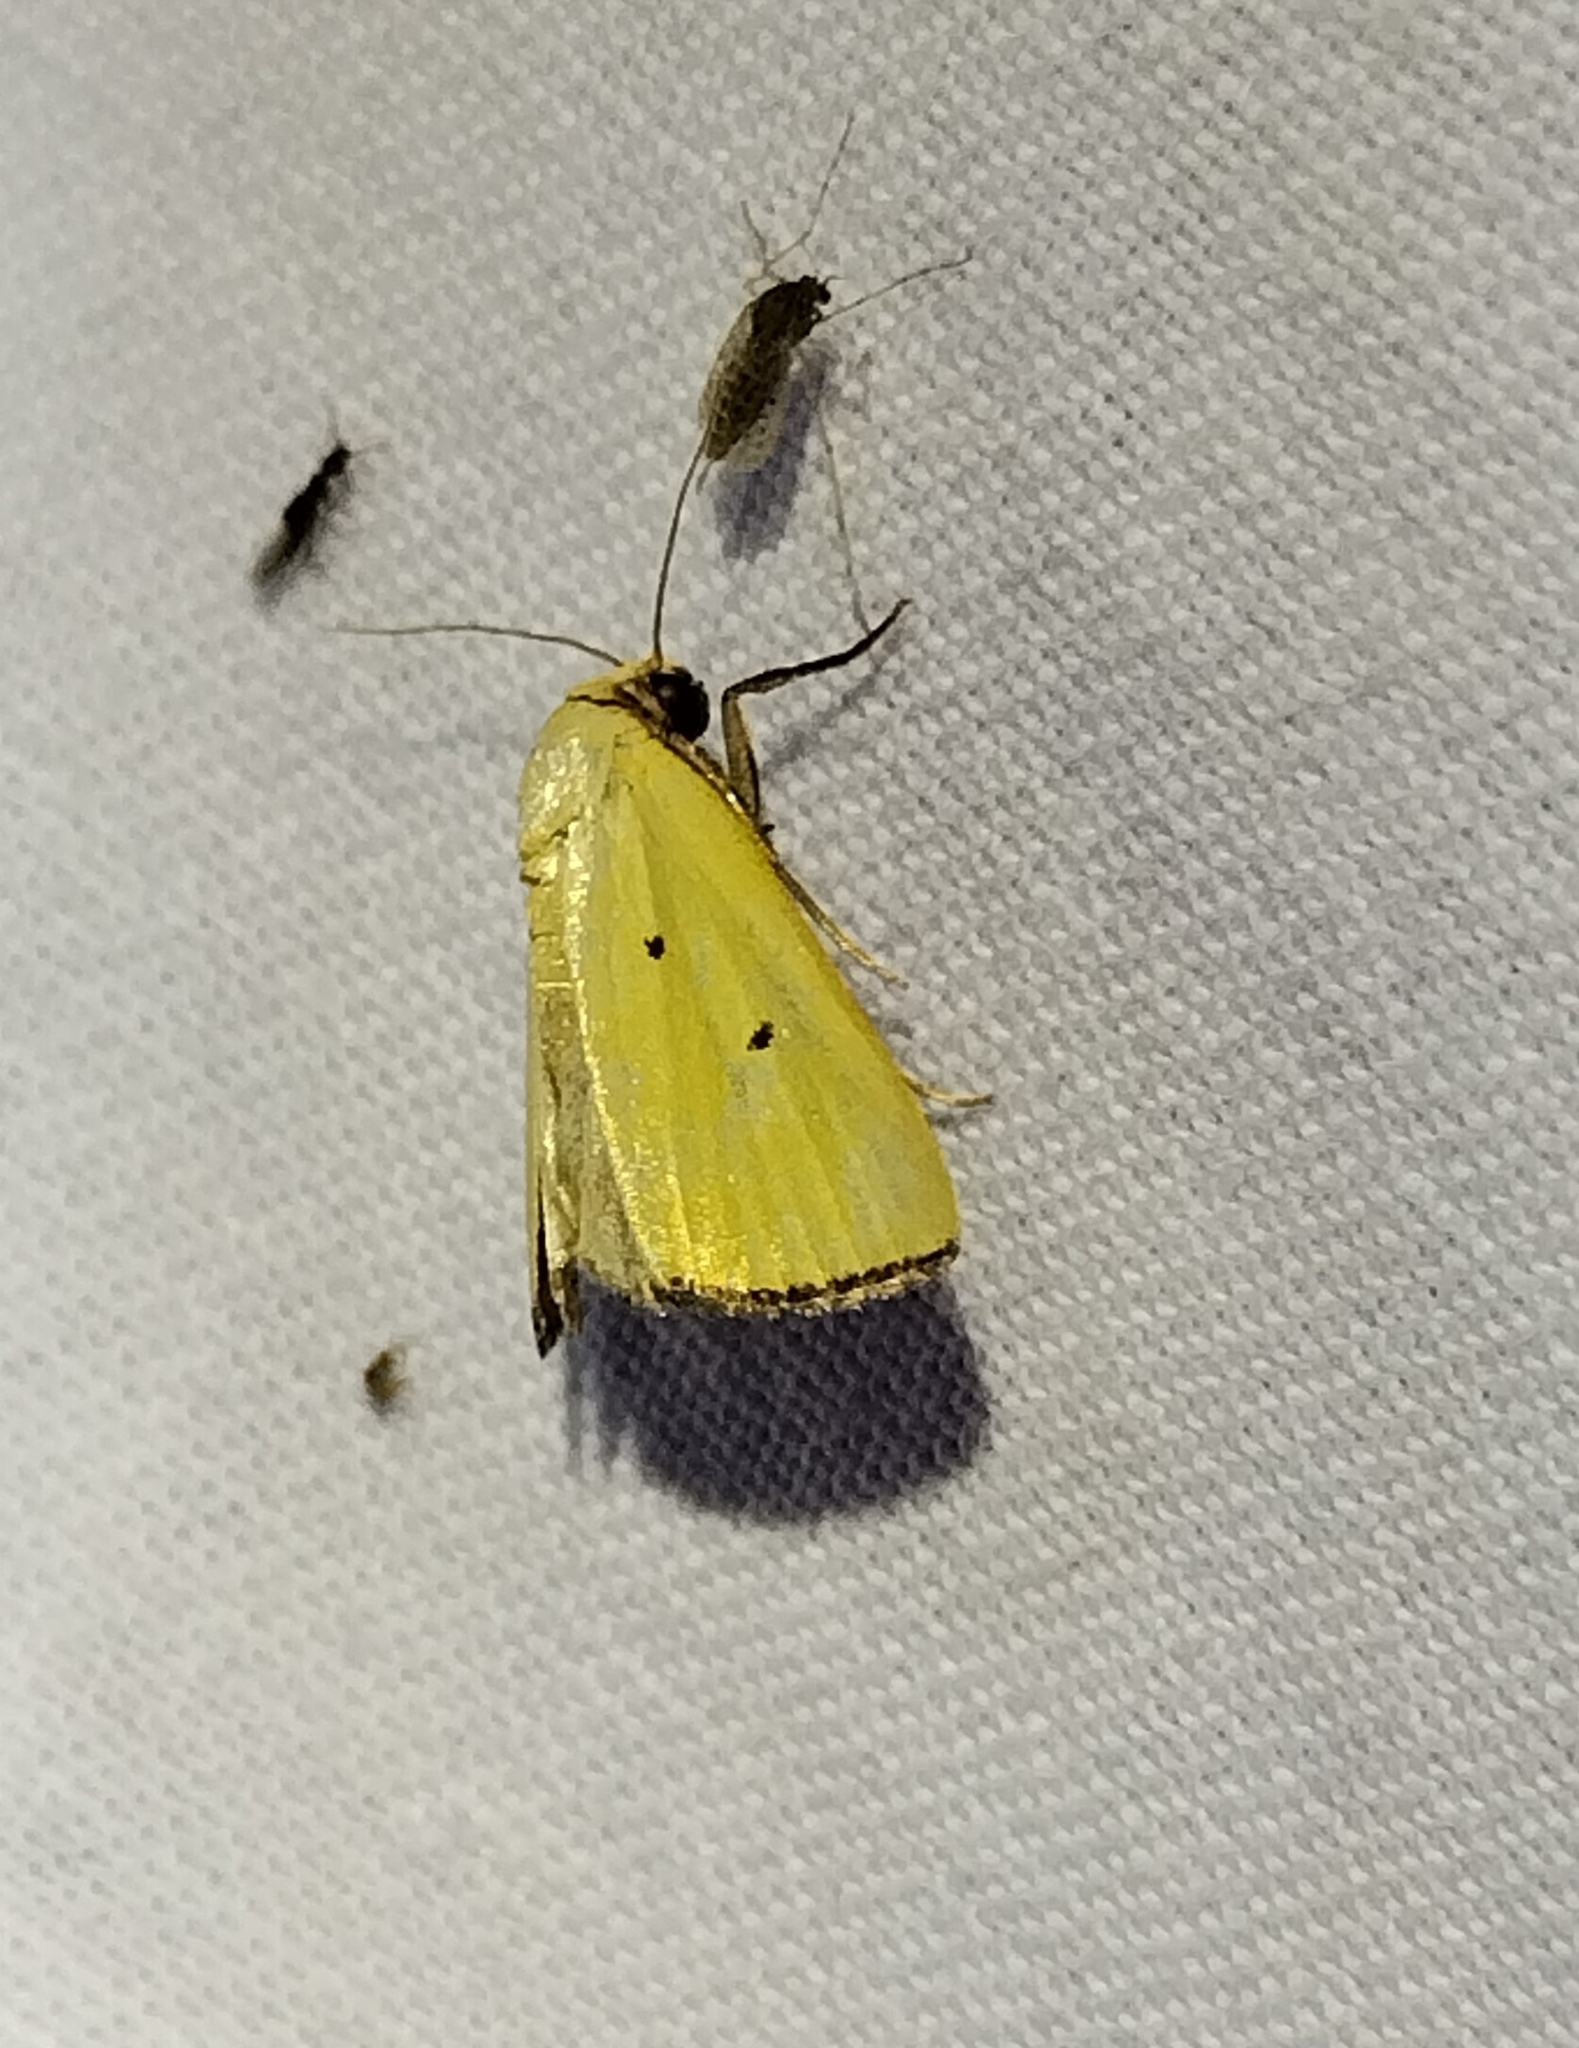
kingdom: Animalia
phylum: Arthropoda
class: Insecta
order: Lepidoptera
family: Noctuidae
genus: Marimatha
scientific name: Marimatha nigrofimbria
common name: Black-bordered lemon moth
